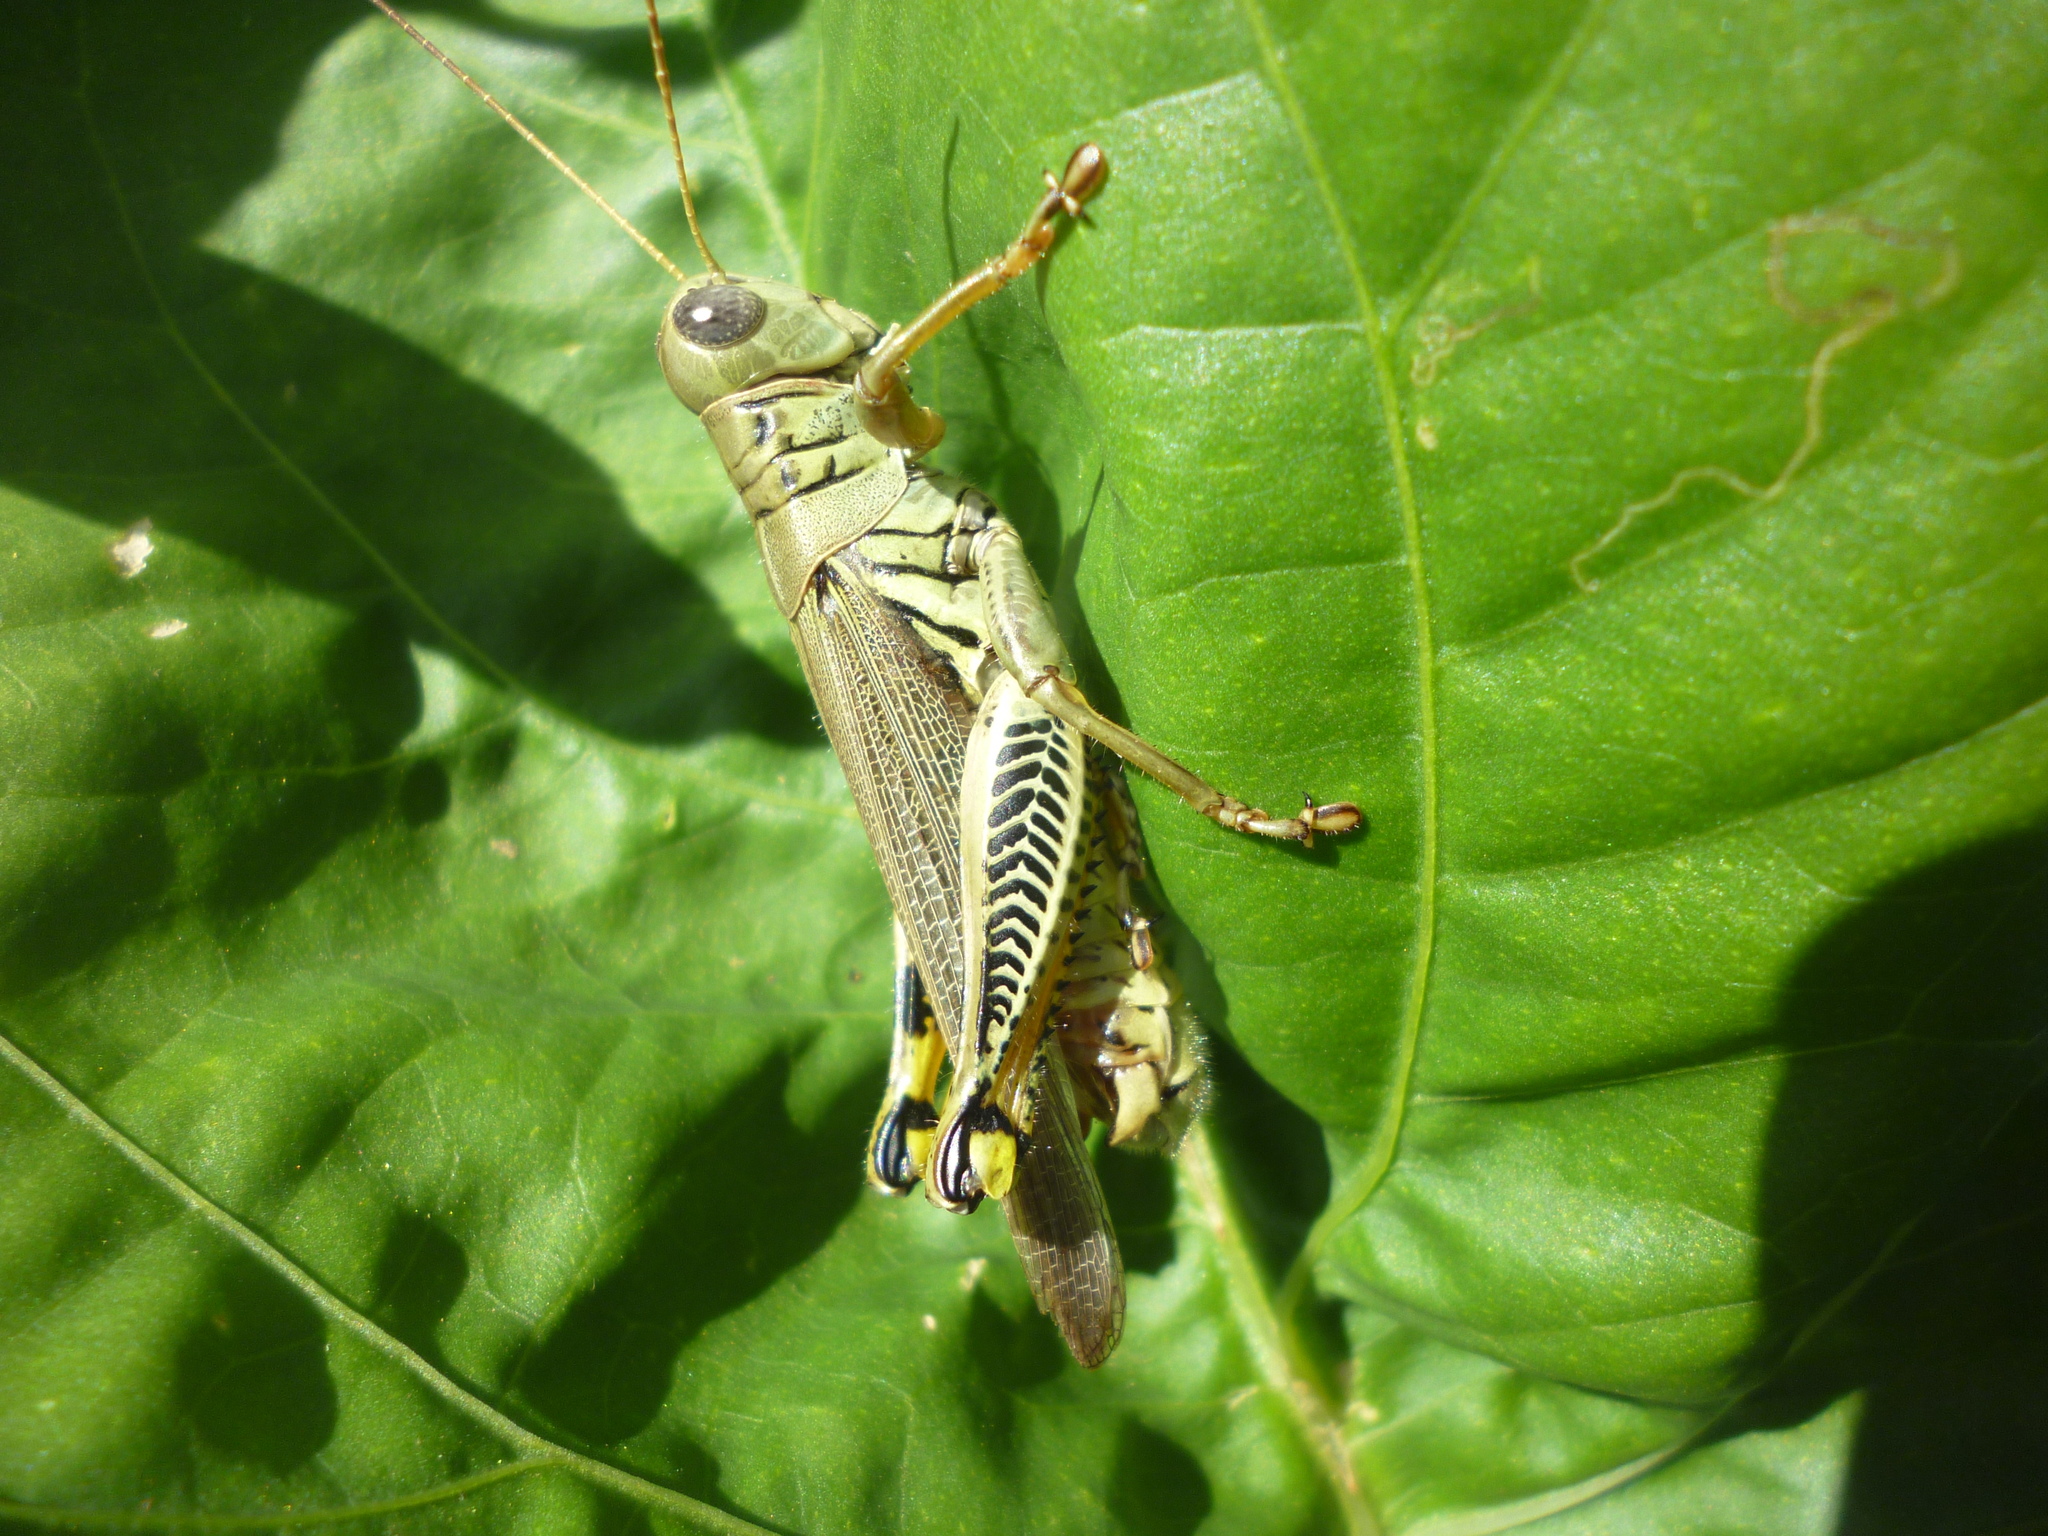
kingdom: Animalia
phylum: Arthropoda
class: Insecta
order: Orthoptera
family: Acrididae
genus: Melanoplus
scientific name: Melanoplus differentialis
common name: Differential grasshopper
